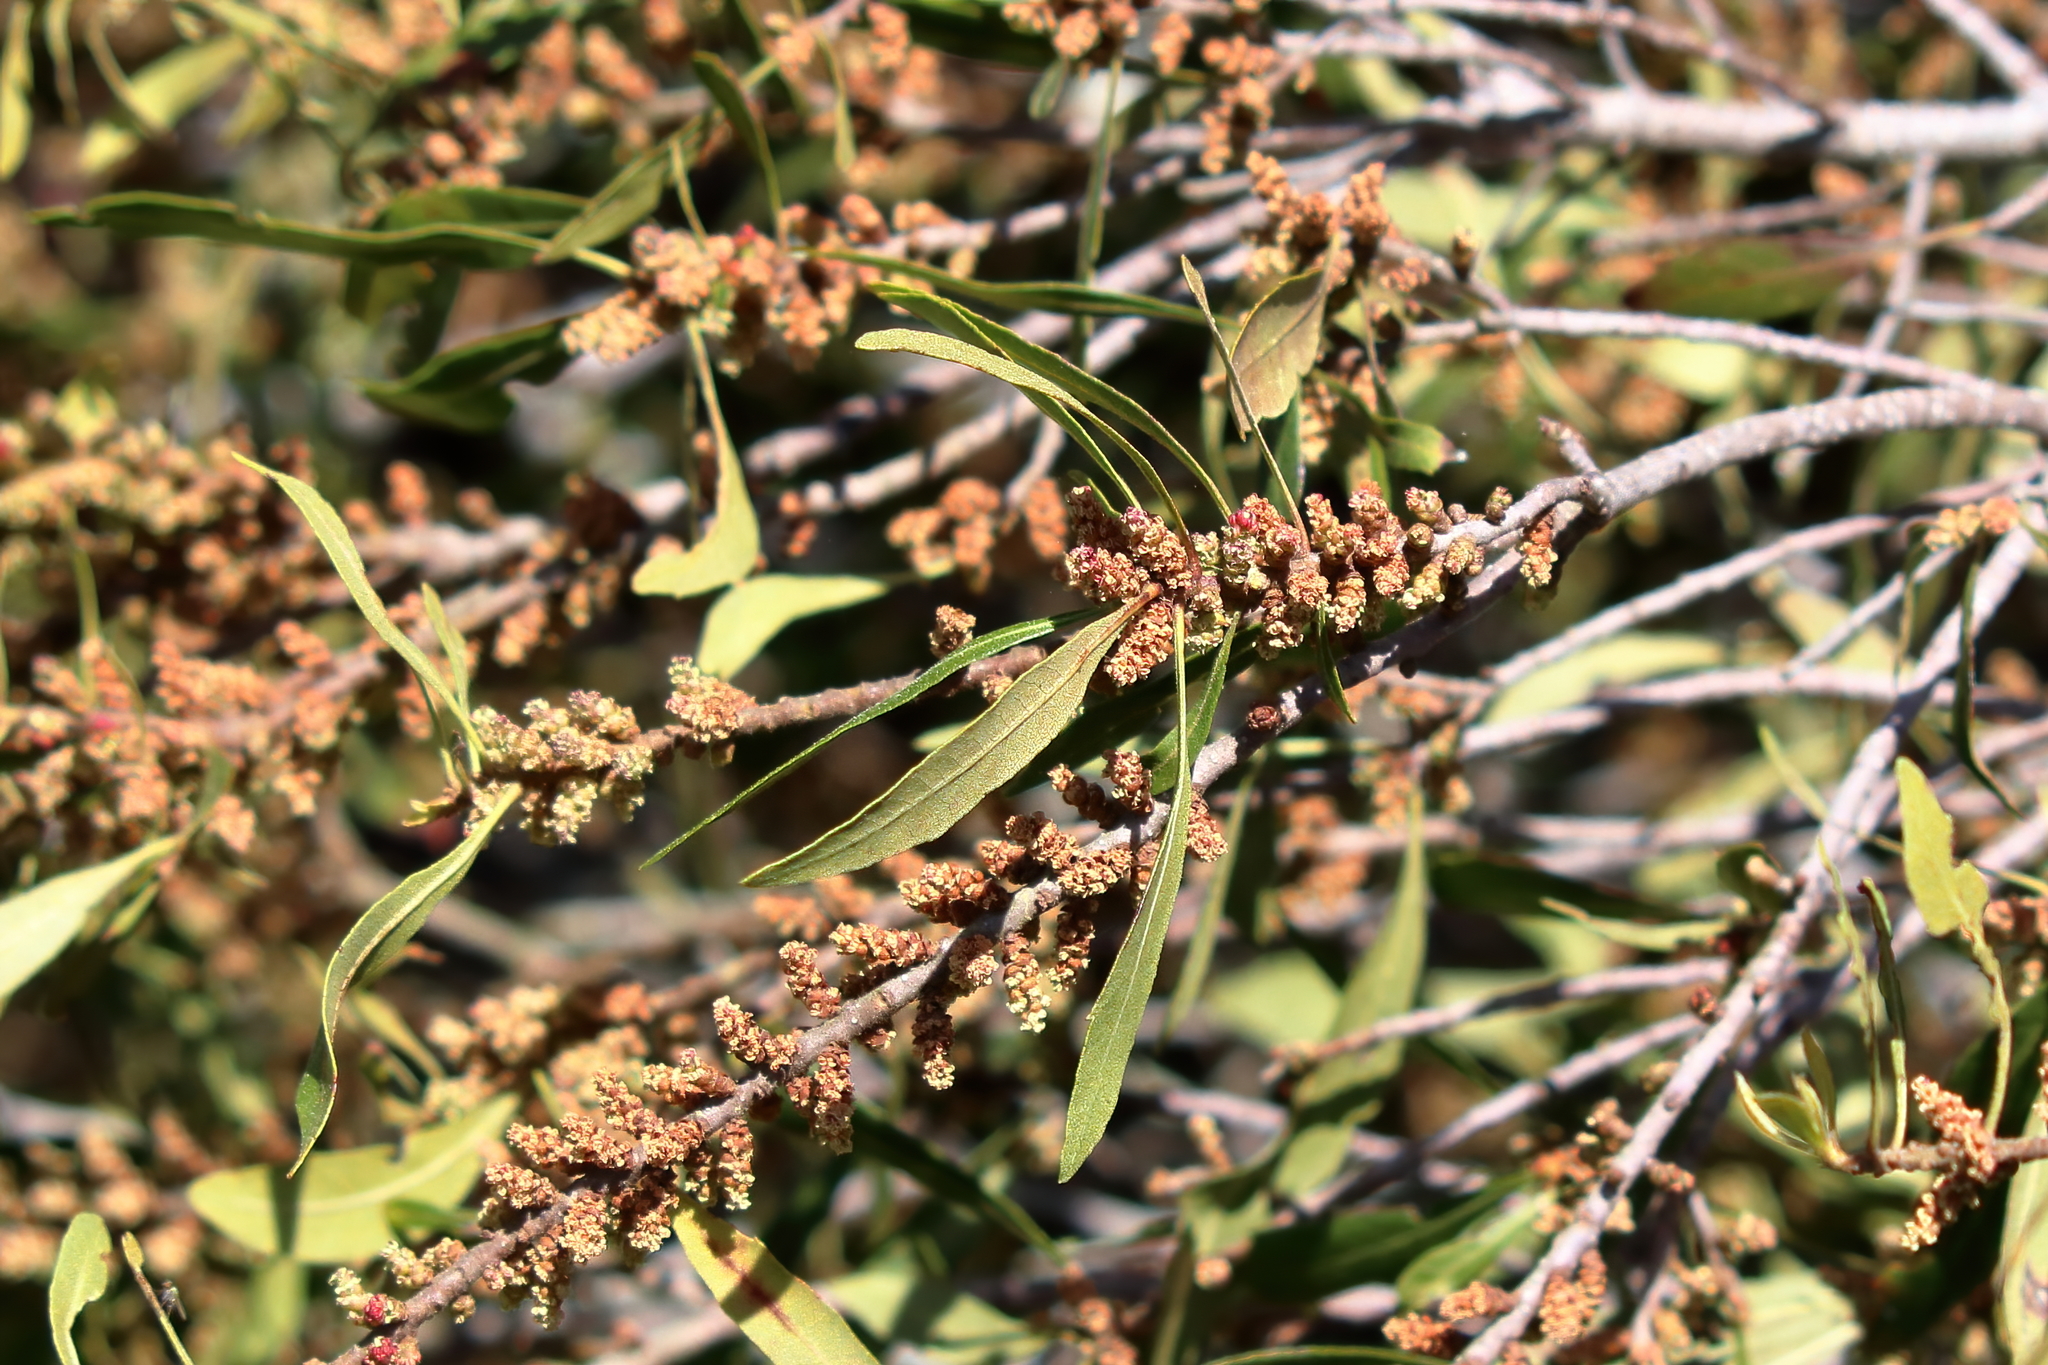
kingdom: Plantae
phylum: Tracheophyta
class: Magnoliopsida
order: Fagales
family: Myricaceae
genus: Morella
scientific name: Morella cerifera
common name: Wax myrtle
